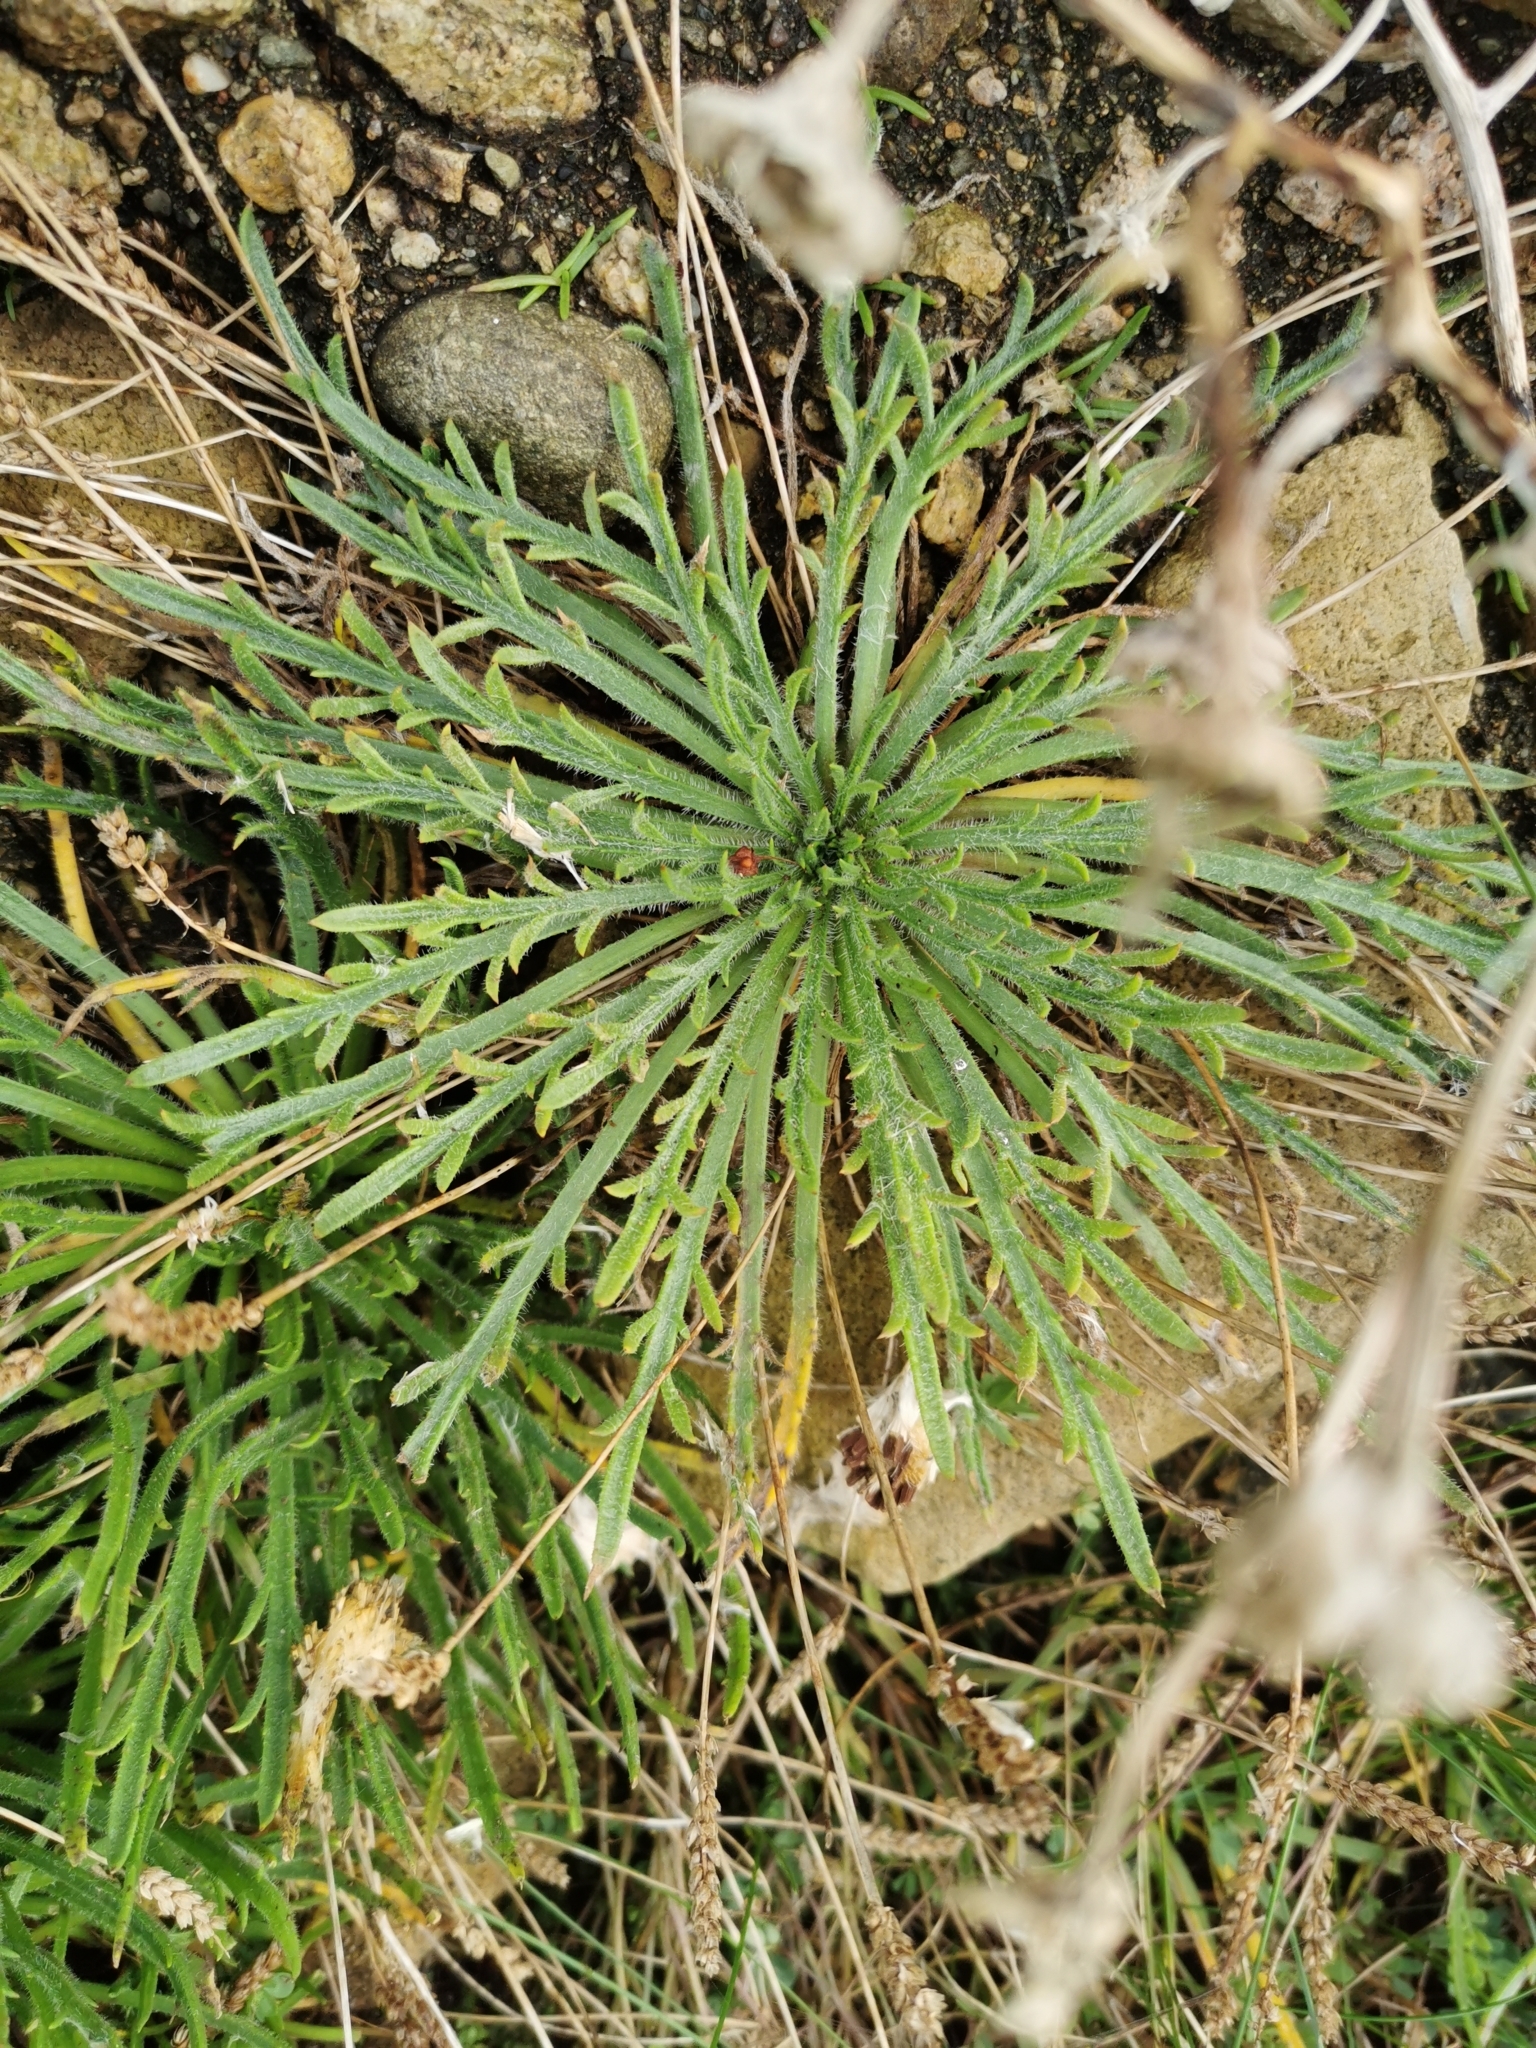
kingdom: Plantae
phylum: Tracheophyta
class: Magnoliopsida
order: Lamiales
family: Plantaginaceae
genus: Plantago
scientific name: Plantago coronopus
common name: Buck's-horn plantain
